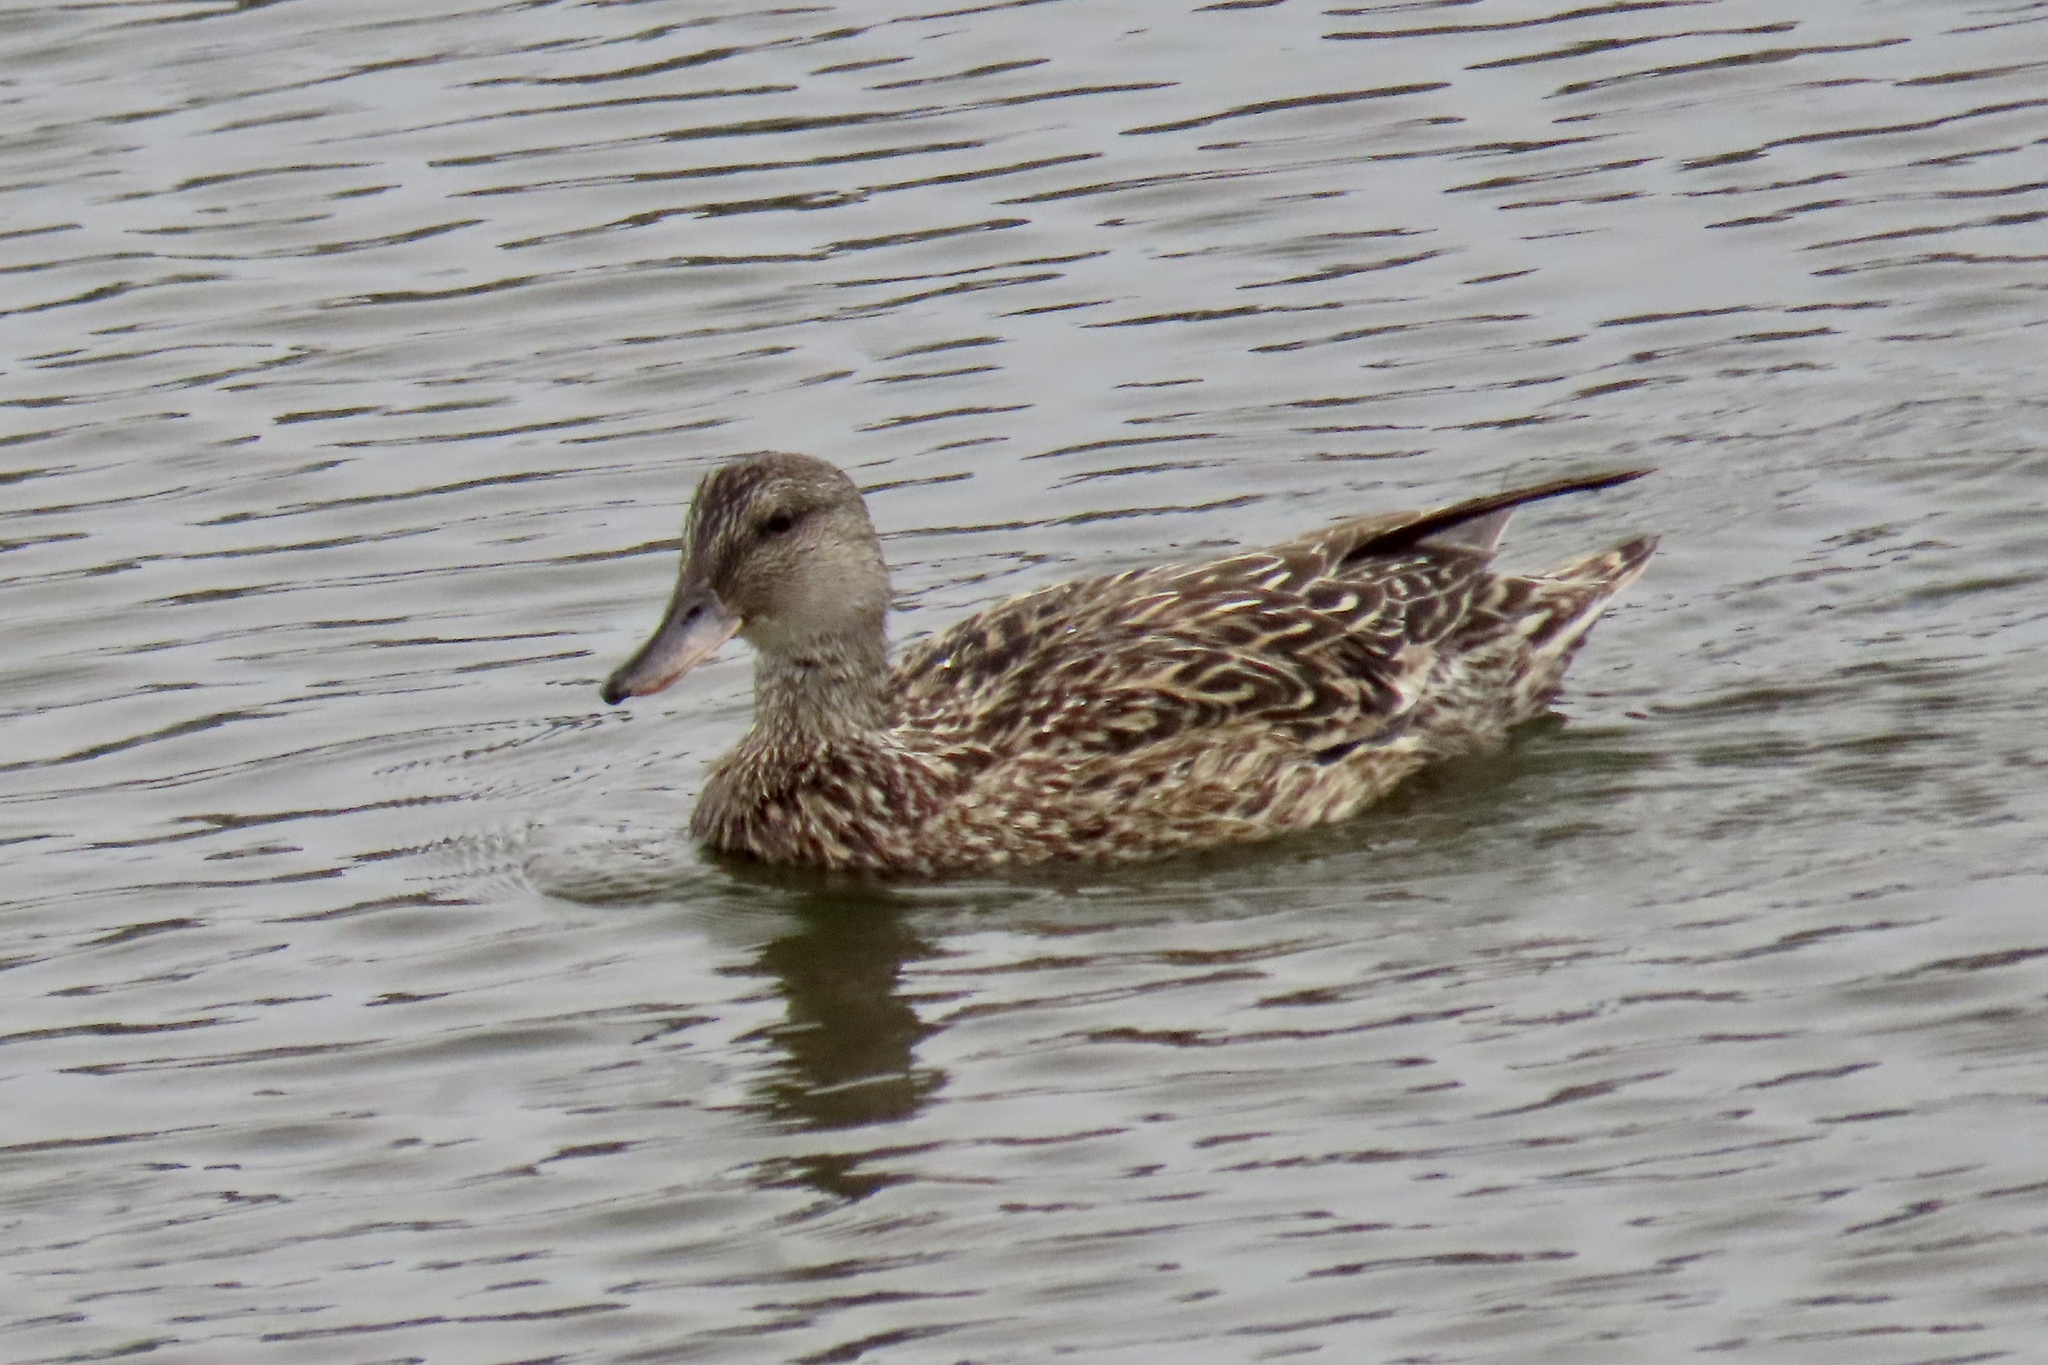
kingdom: Animalia
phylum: Chordata
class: Aves
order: Anseriformes
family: Anatidae
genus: Mareca
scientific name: Mareca strepera
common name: Gadwall
